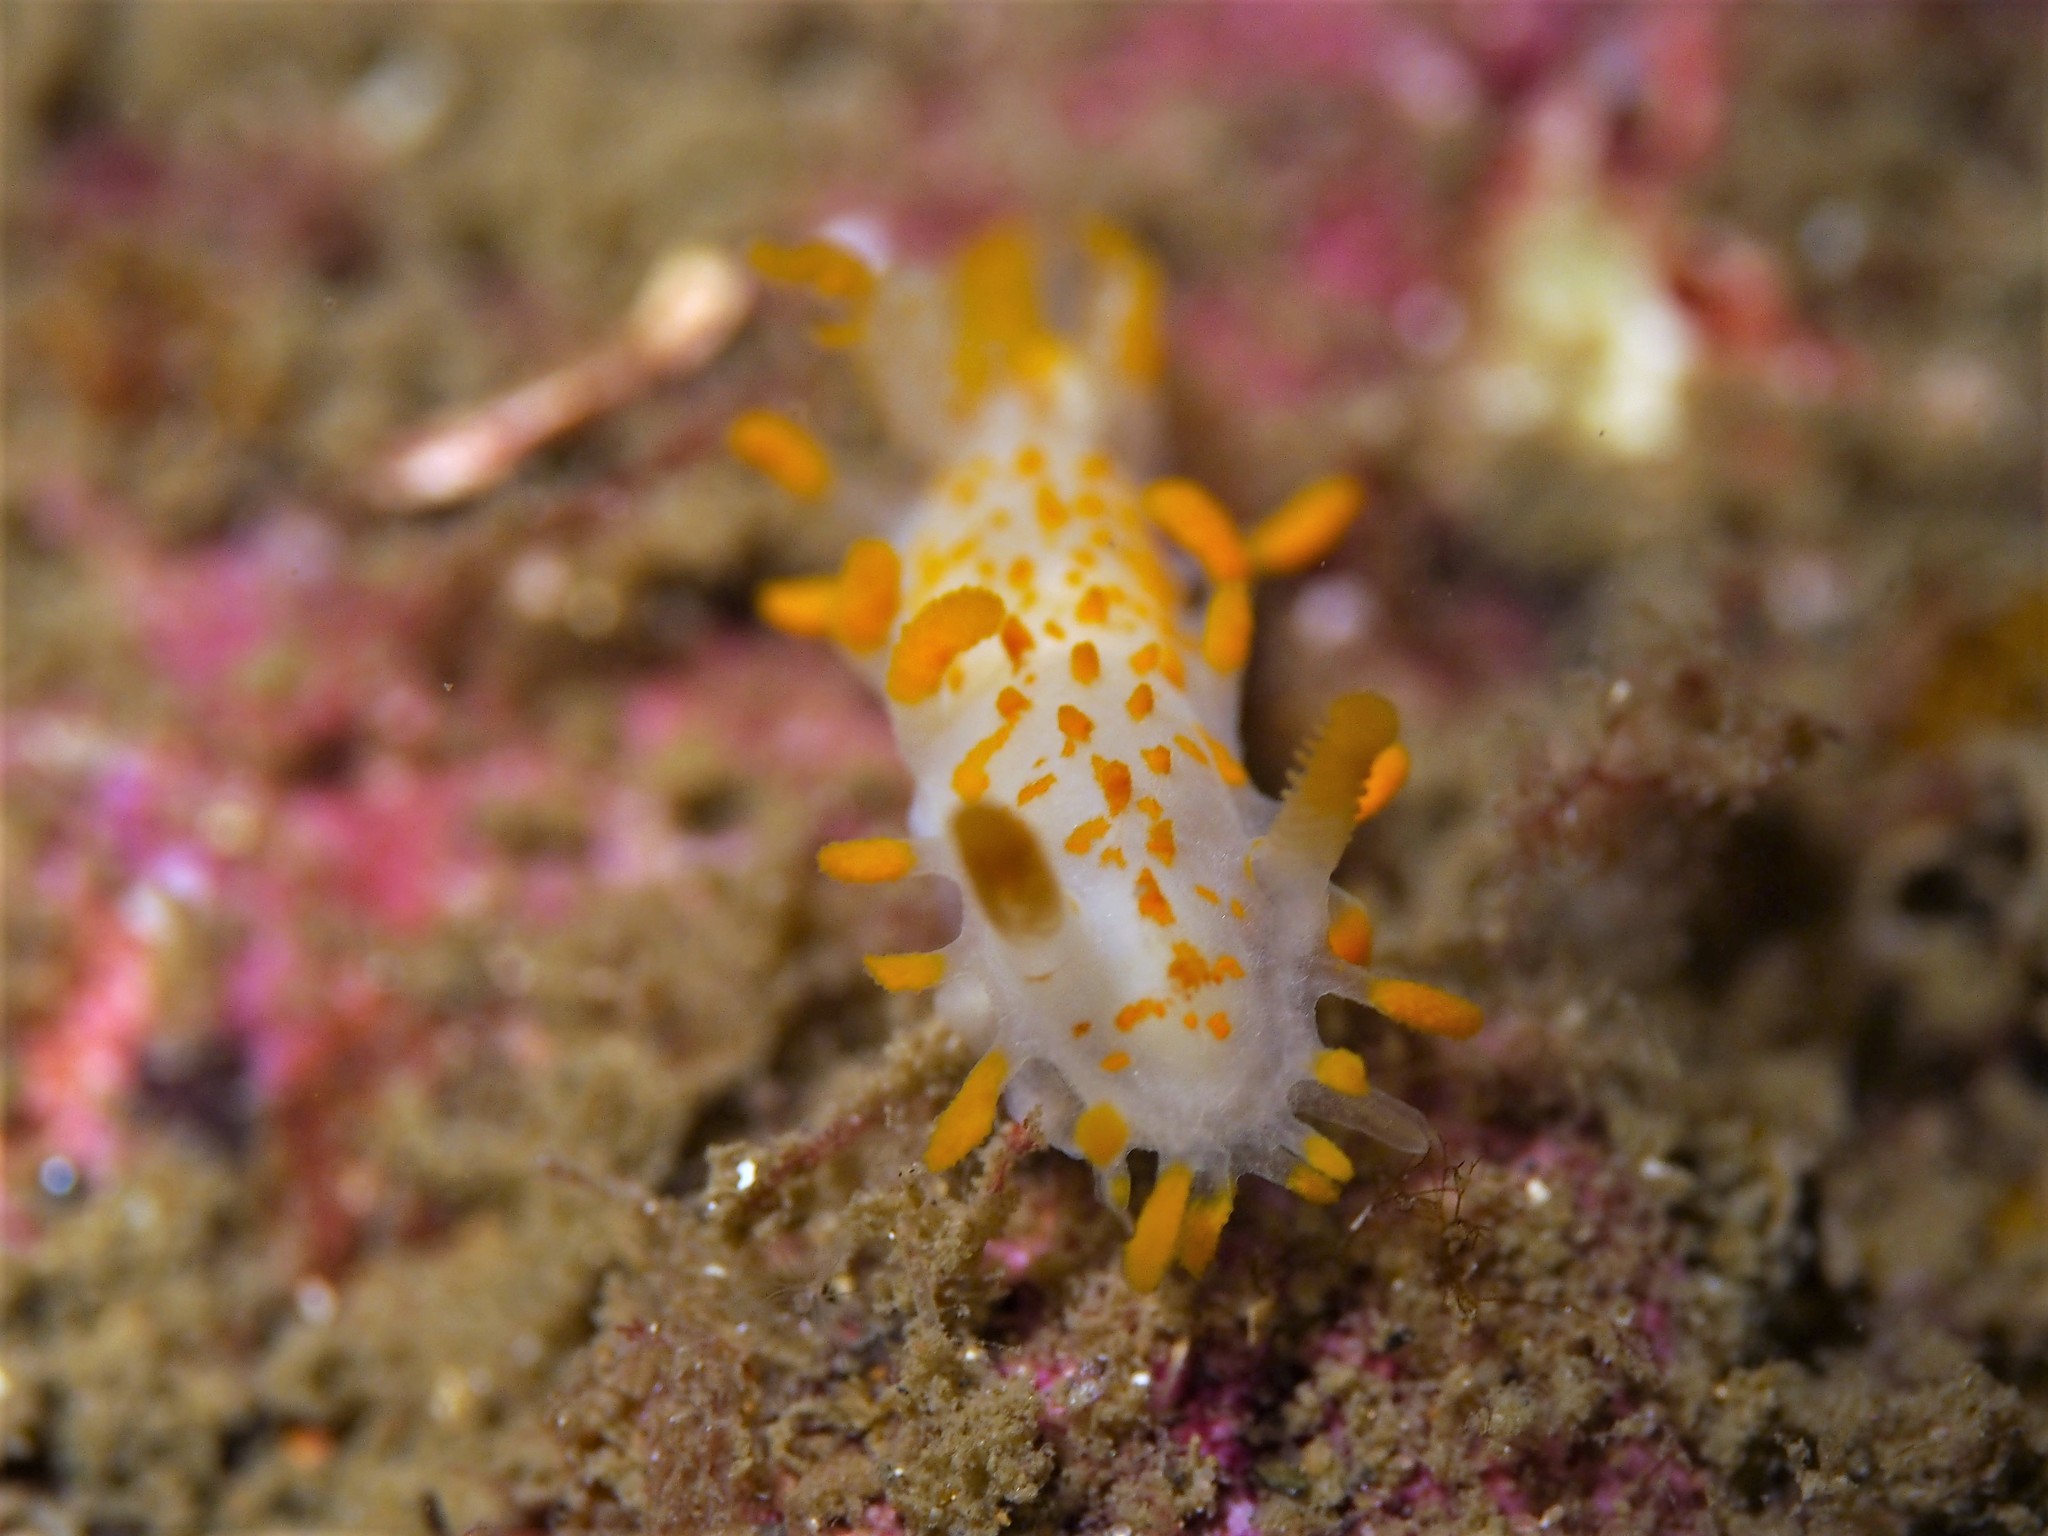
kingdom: Animalia
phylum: Mollusca
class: Gastropoda
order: Nudibranchia
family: Polyceridae
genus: Limacia
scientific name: Limacia clavigera
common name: Orange-clubbed sea slug
